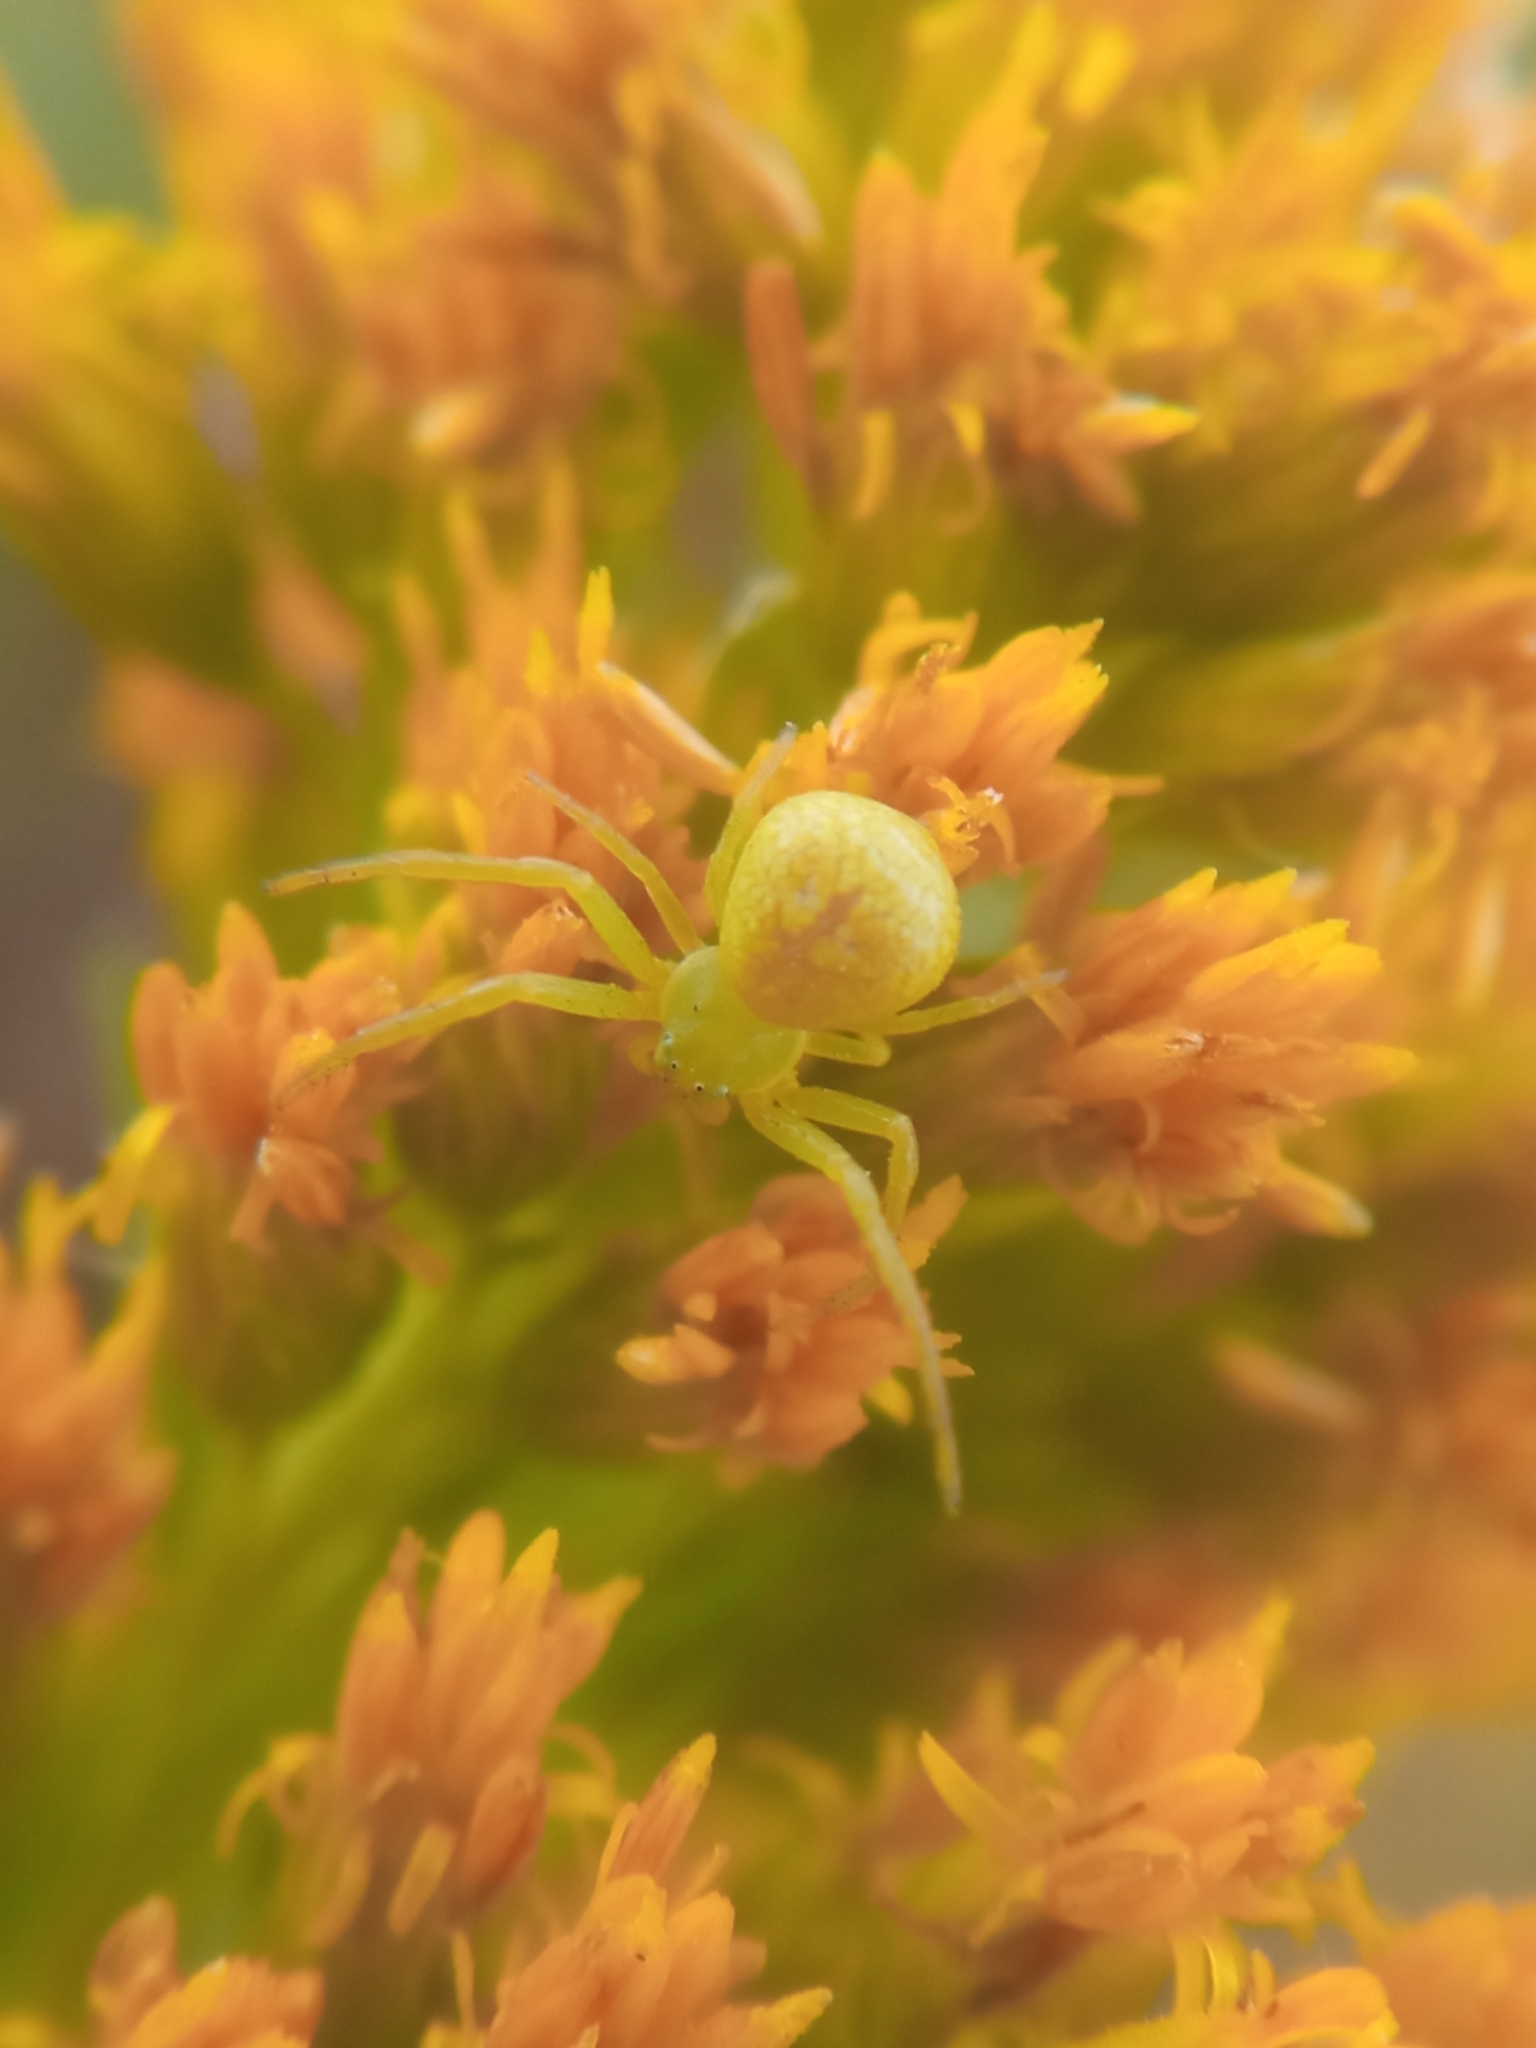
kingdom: Animalia
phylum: Arthropoda
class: Arachnida
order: Araneae
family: Thomisidae
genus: Ebrechtella
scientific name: Ebrechtella tricuspidata
